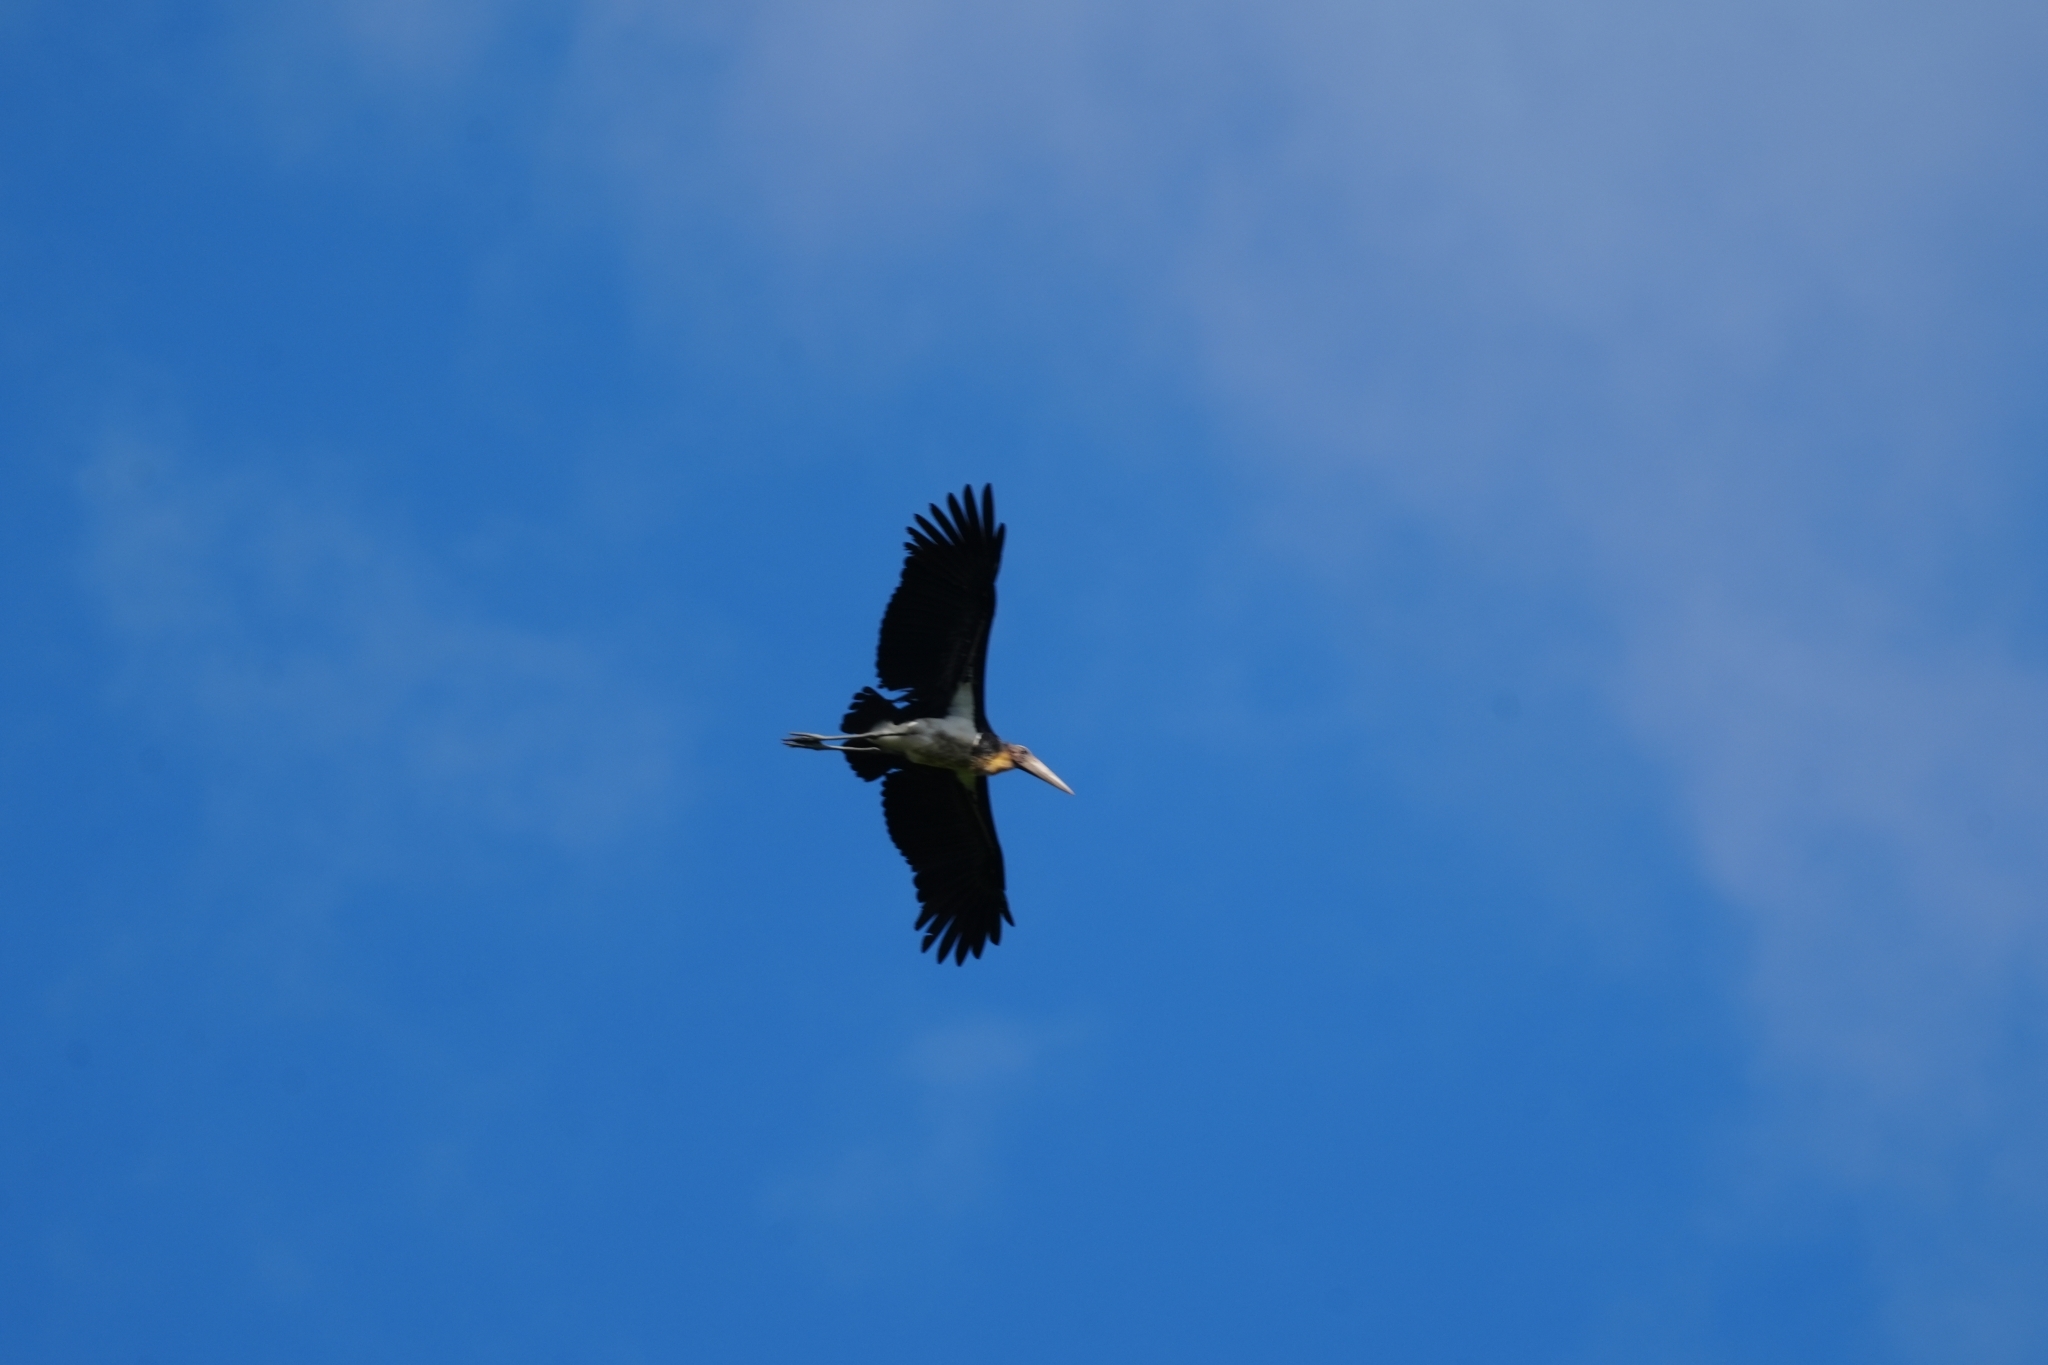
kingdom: Animalia
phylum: Chordata
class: Aves
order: Ciconiiformes
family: Ciconiidae
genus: Leptoptilos
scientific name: Leptoptilos javanicus
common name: Lesser adjutant
